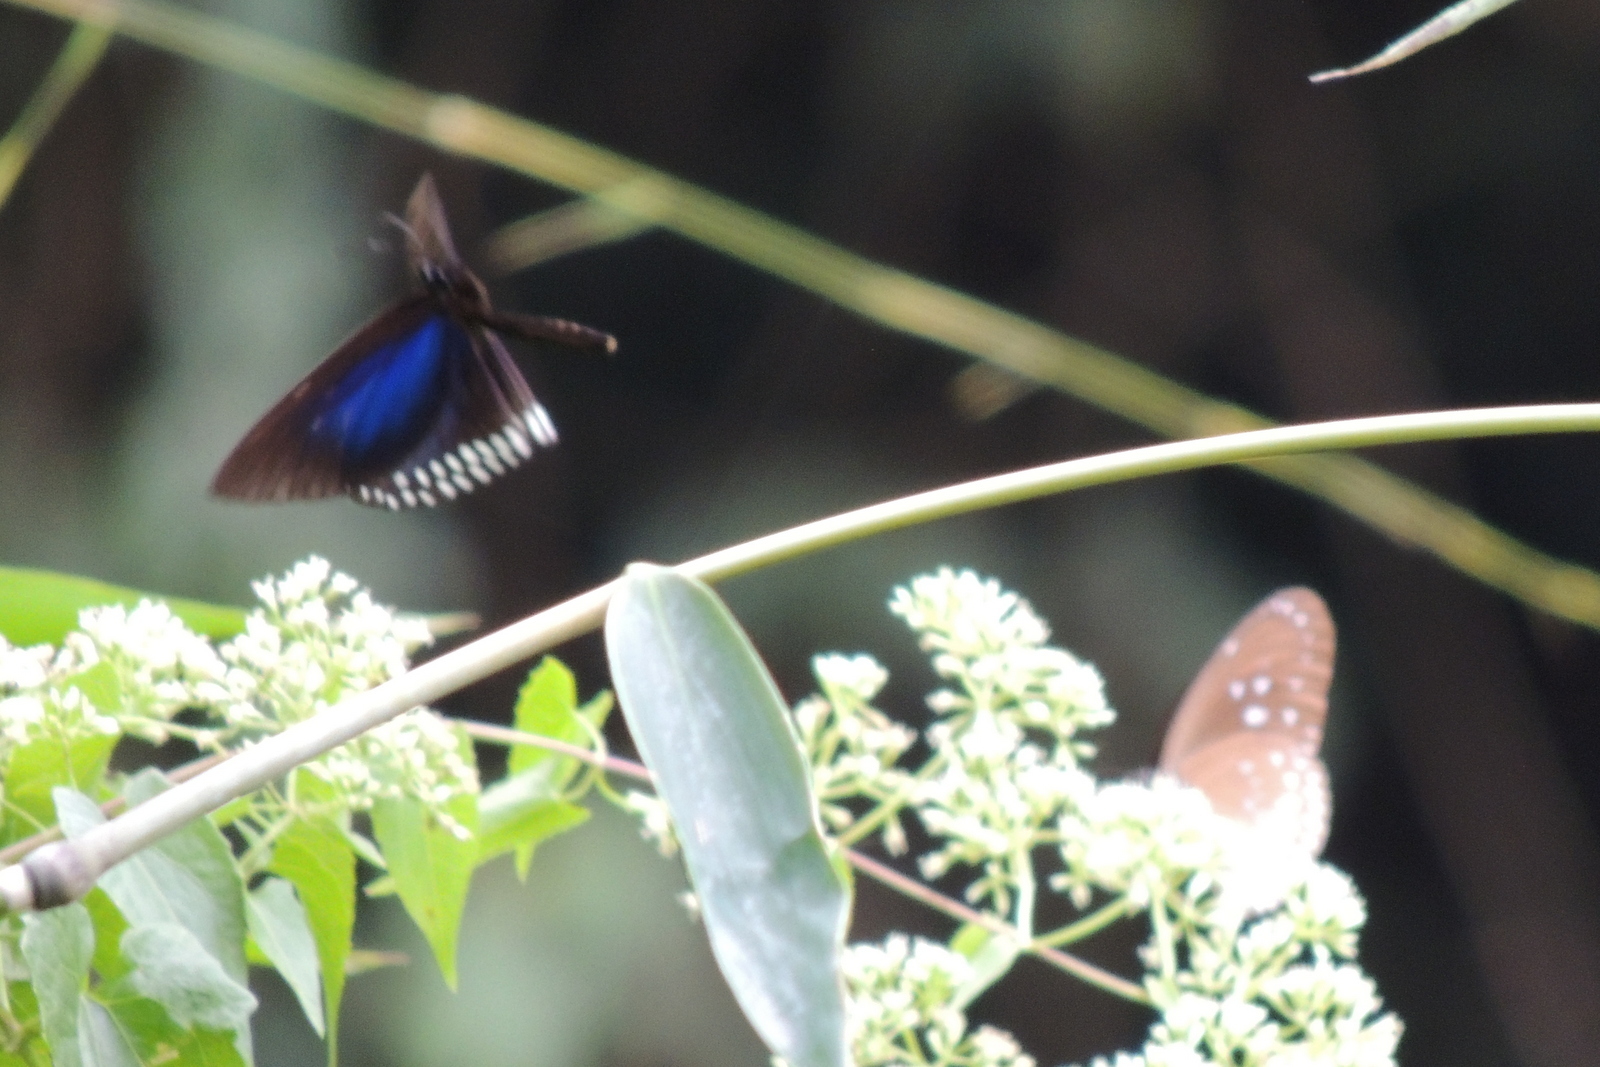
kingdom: Animalia
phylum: Arthropoda
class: Insecta
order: Lepidoptera
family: Nymphalidae
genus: Euploea
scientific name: Euploea camaralzeman
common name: Malayan crow butterfly
